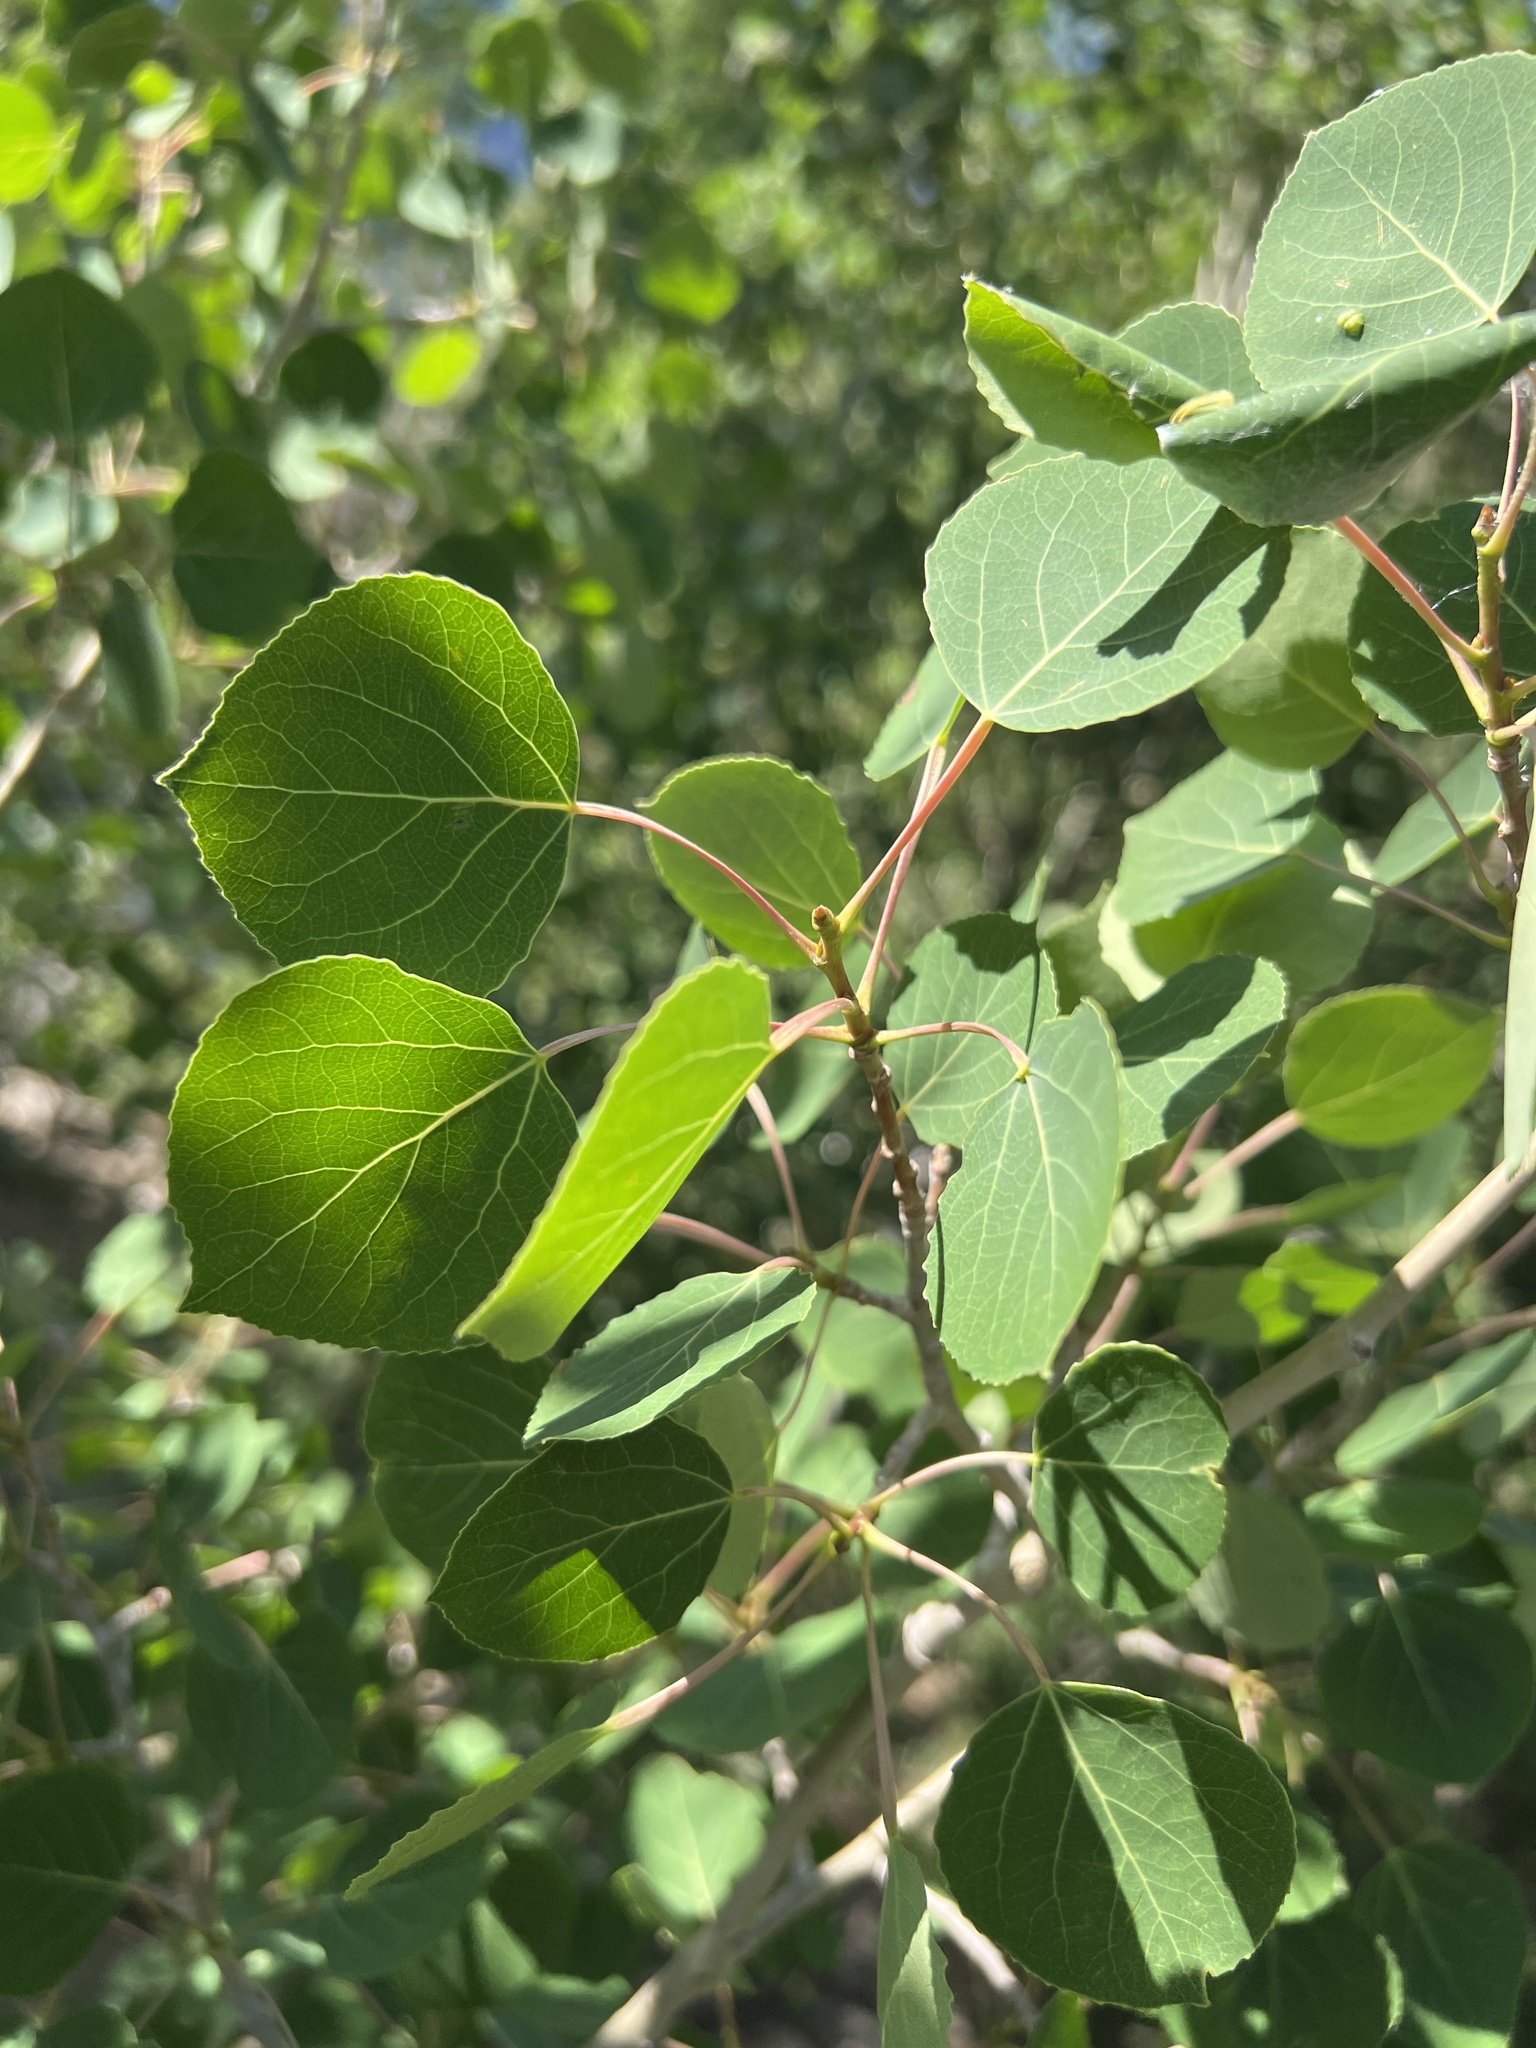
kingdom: Plantae
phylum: Tracheophyta
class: Magnoliopsida
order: Malpighiales
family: Salicaceae
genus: Populus
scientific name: Populus tremuloides
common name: Quaking aspen
